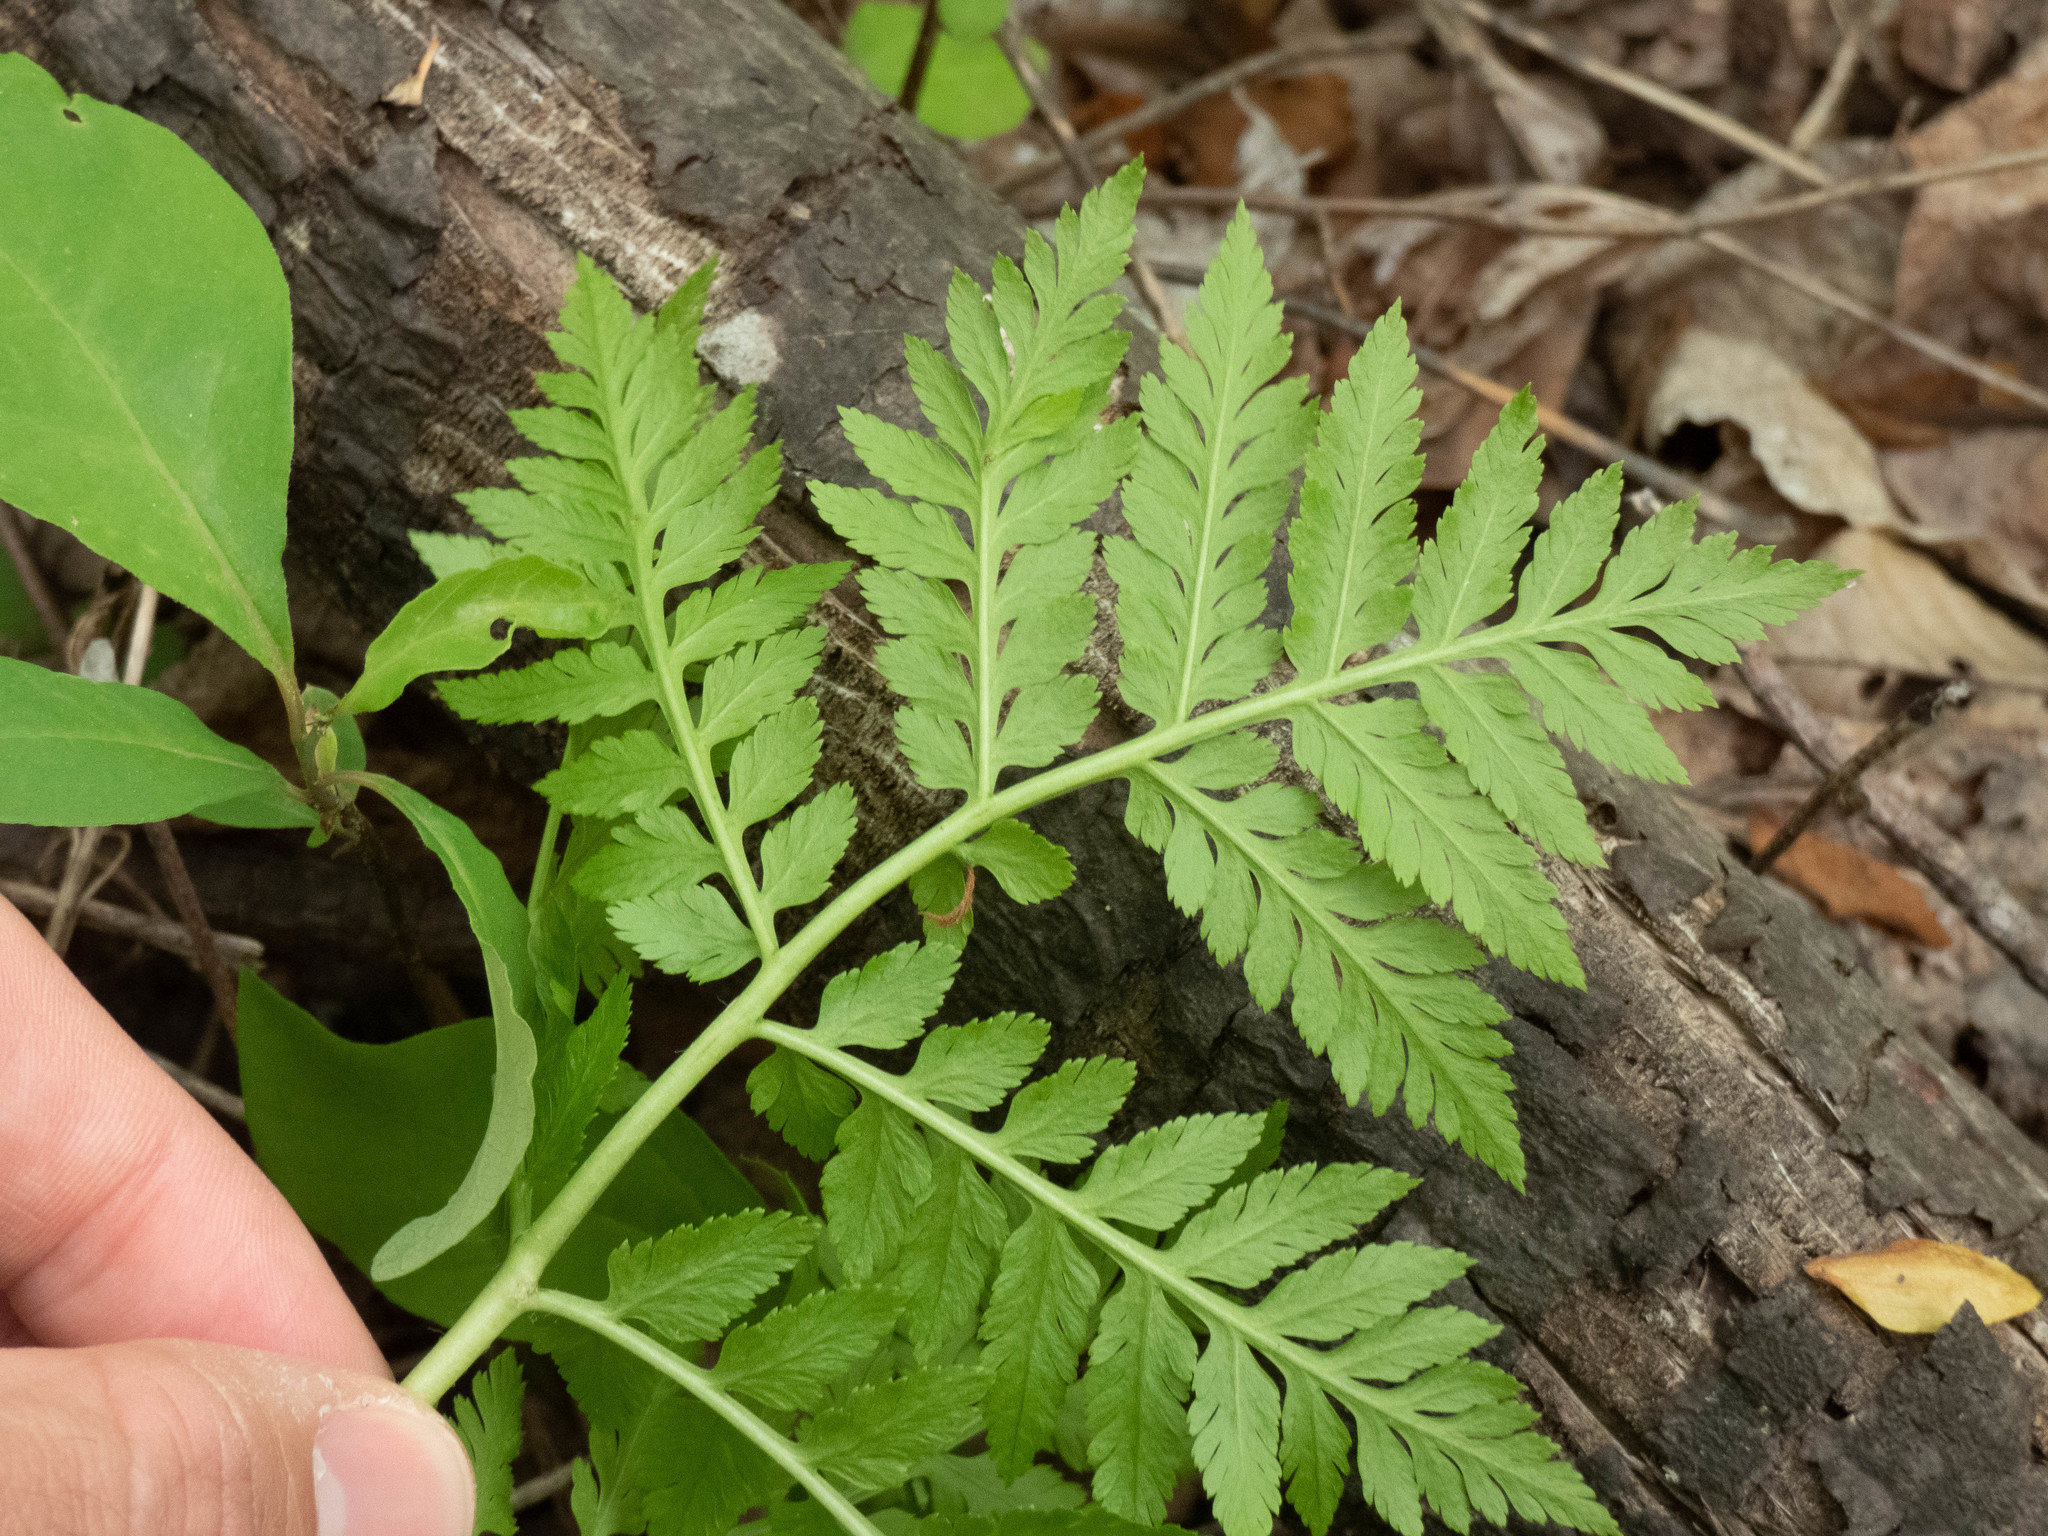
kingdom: Plantae
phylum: Tracheophyta
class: Polypodiopsida
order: Ophioglossales
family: Ophioglossaceae
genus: Botrypus
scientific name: Botrypus virginianus
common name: Common grapefern
